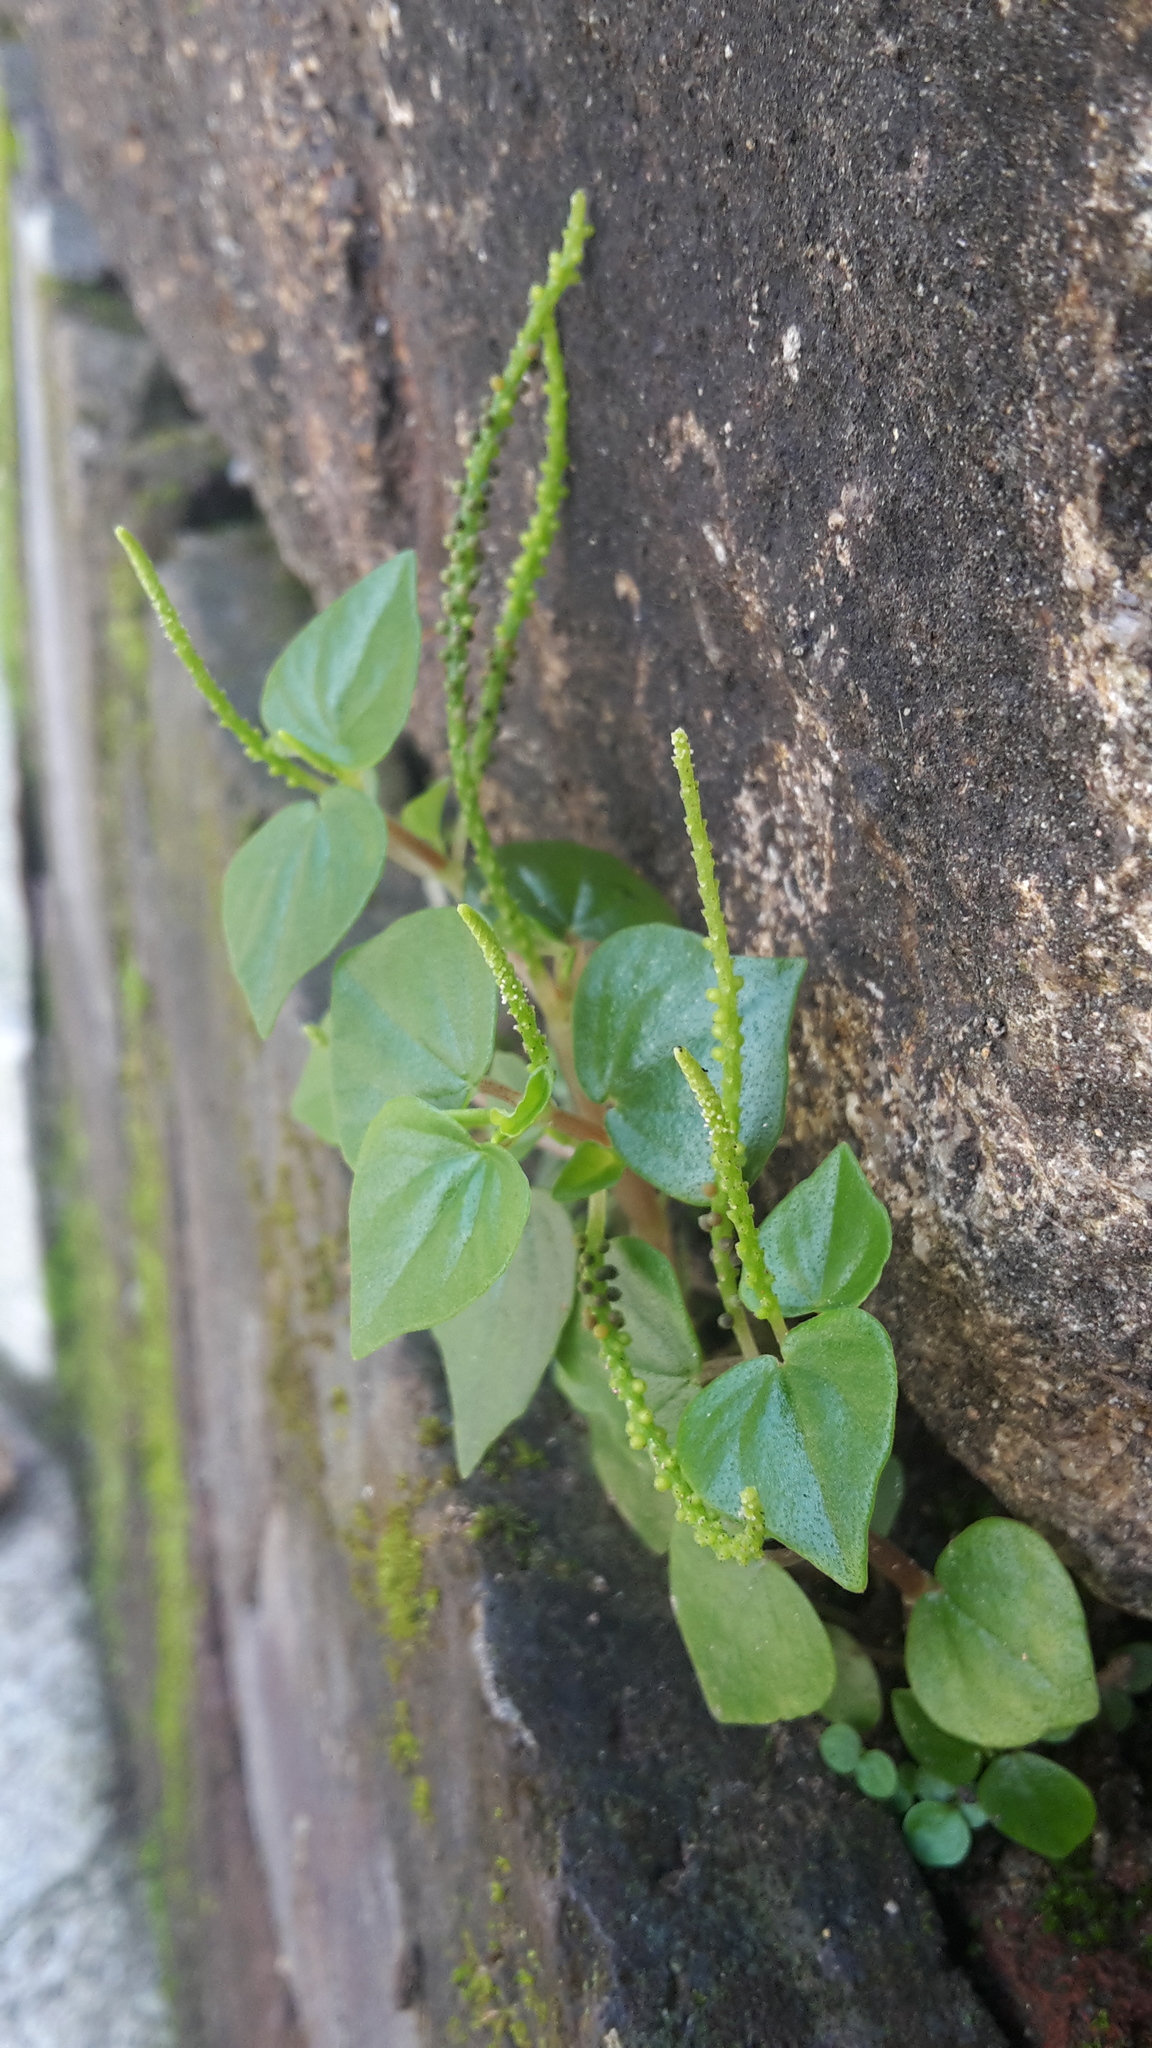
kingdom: Plantae
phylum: Tracheophyta
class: Magnoliopsida
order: Piperales
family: Piperaceae
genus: Peperomia
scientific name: Peperomia pellucida
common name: Man to man
